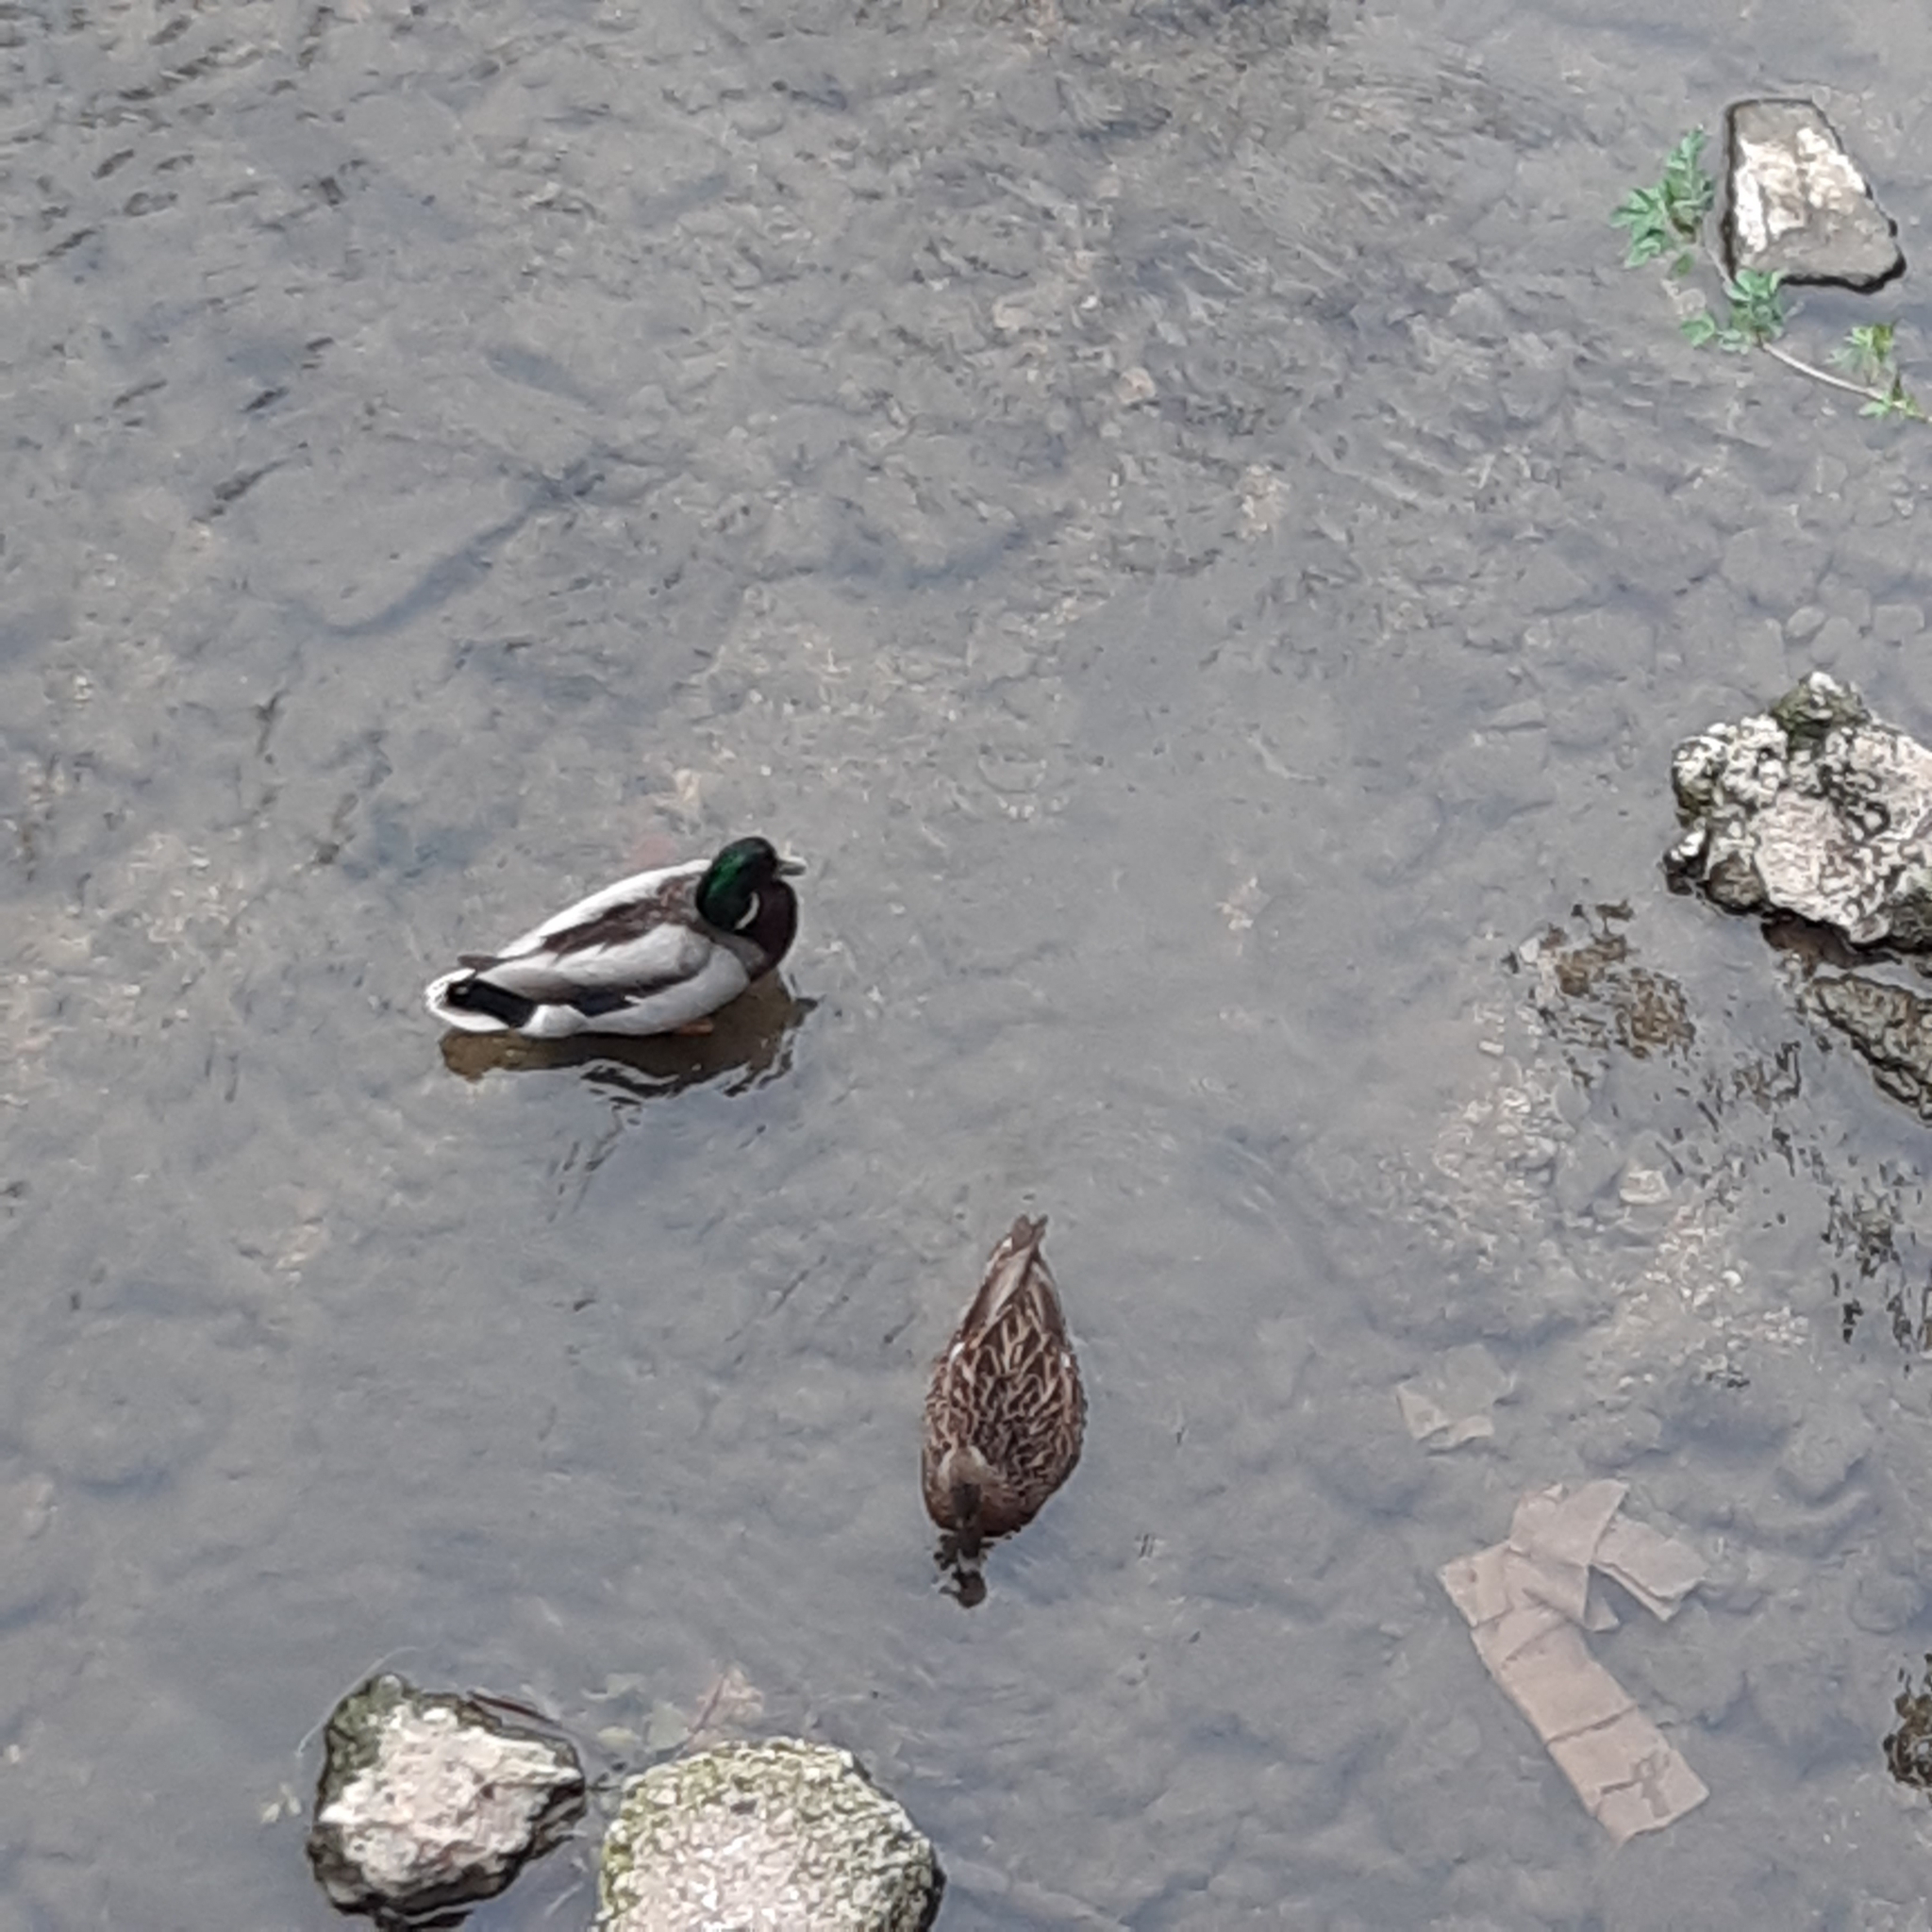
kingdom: Animalia
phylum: Chordata
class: Aves
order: Anseriformes
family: Anatidae
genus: Anas
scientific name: Anas platyrhynchos
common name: Mallard
